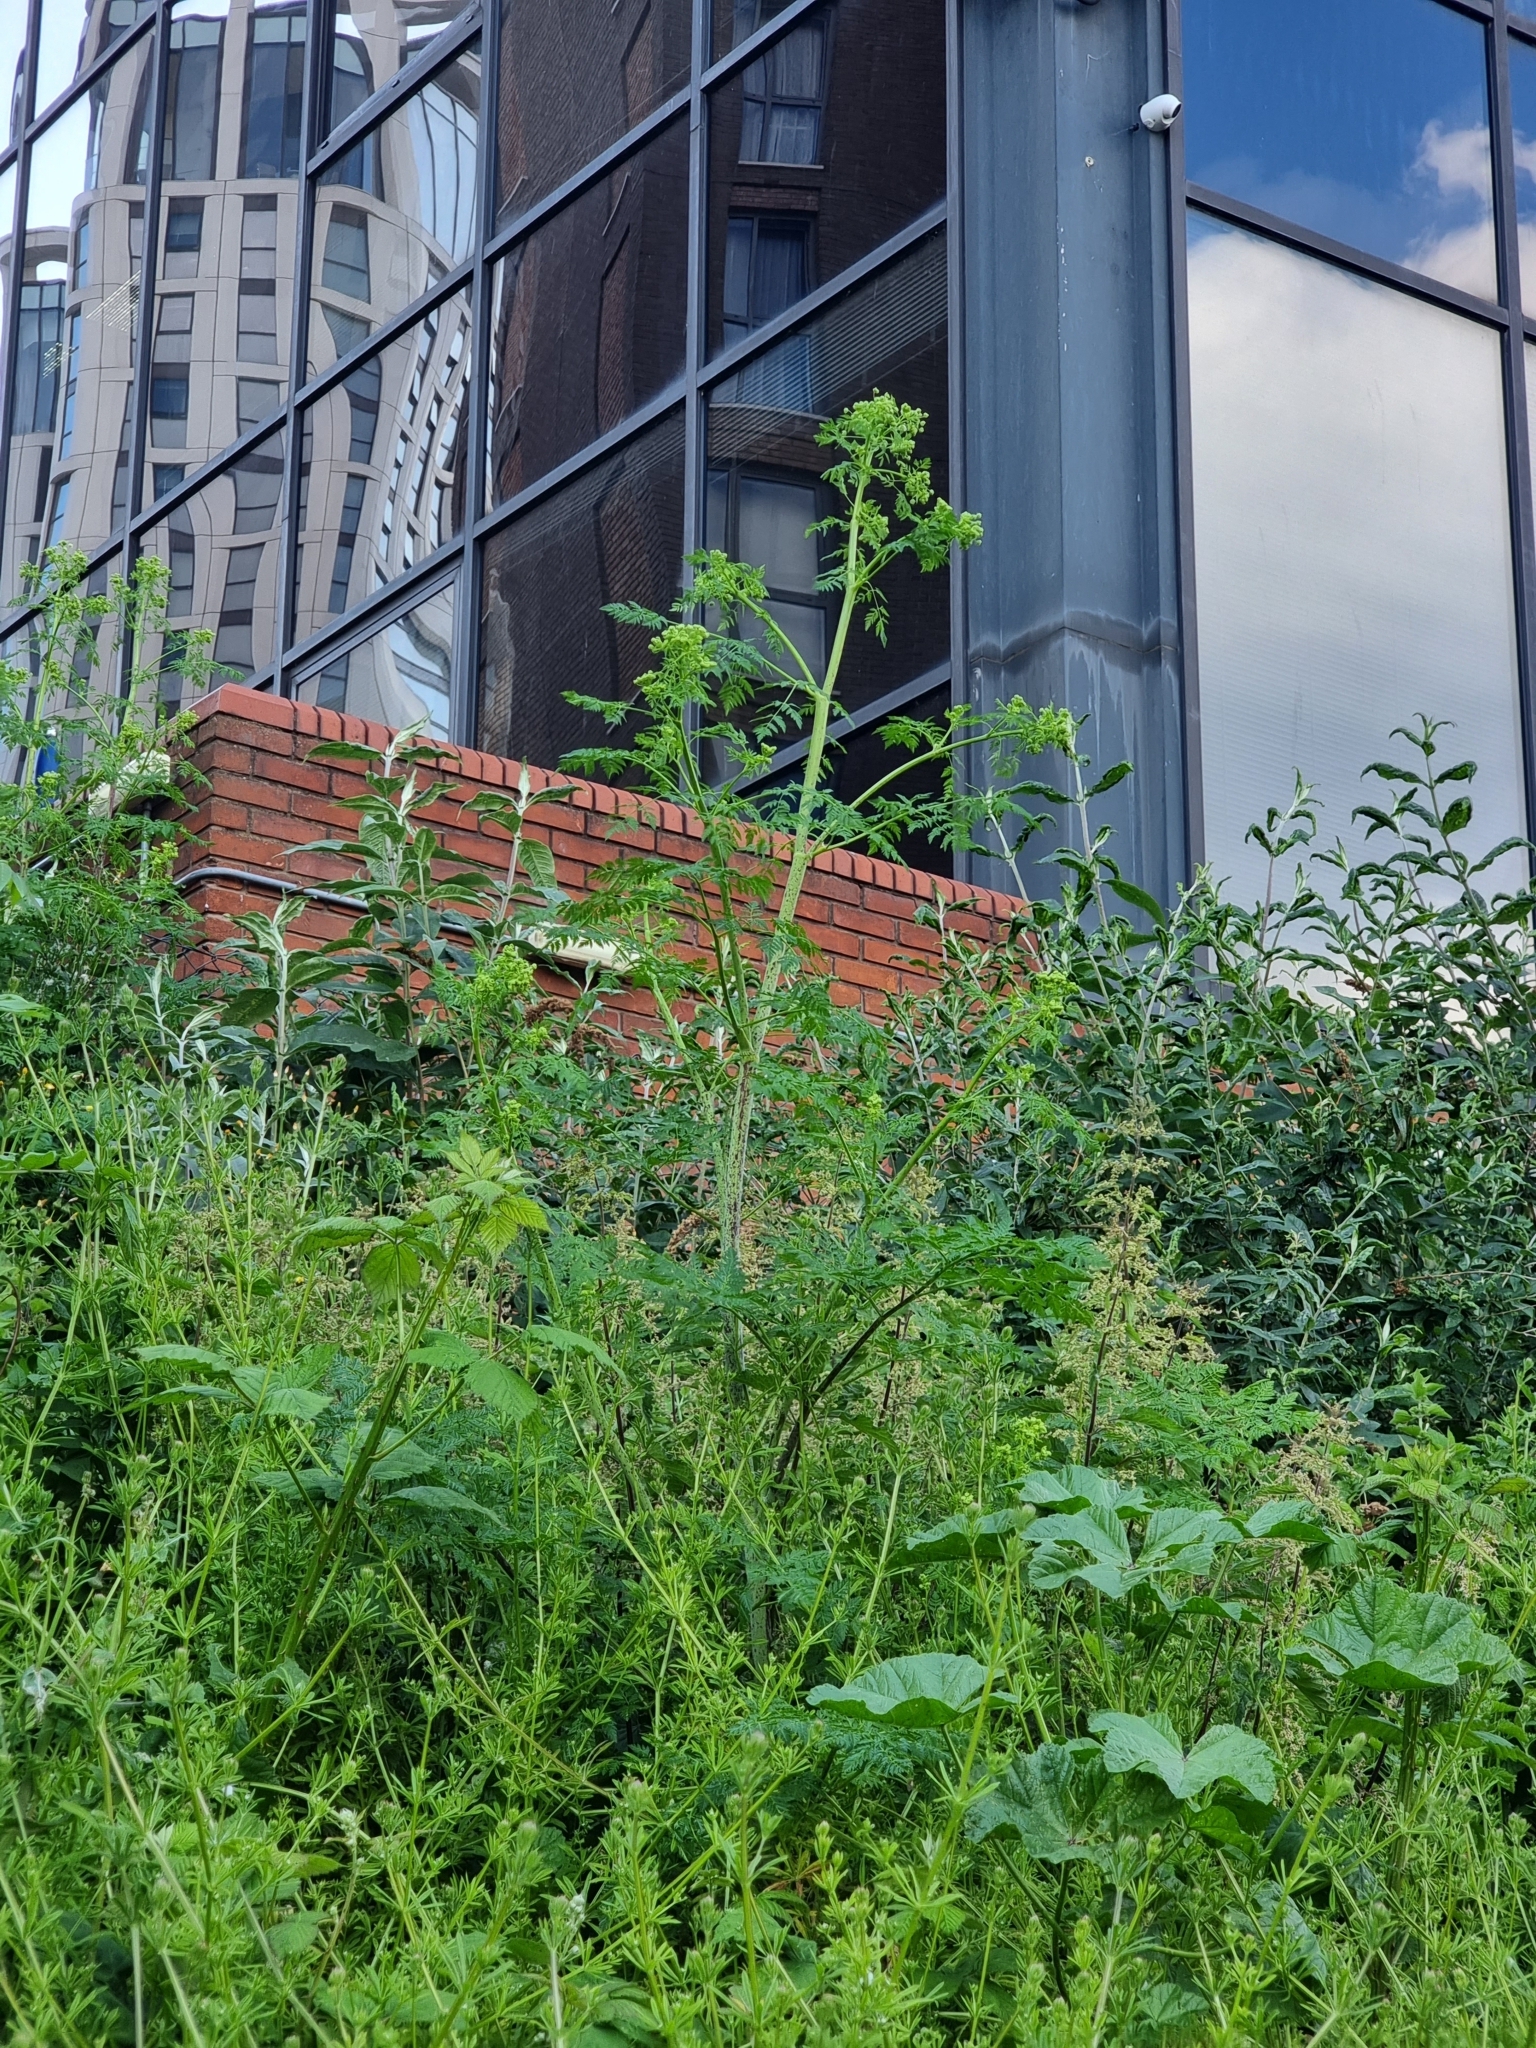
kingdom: Plantae
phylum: Tracheophyta
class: Magnoliopsida
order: Apiales
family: Apiaceae
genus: Conium
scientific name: Conium maculatum
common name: Hemlock
